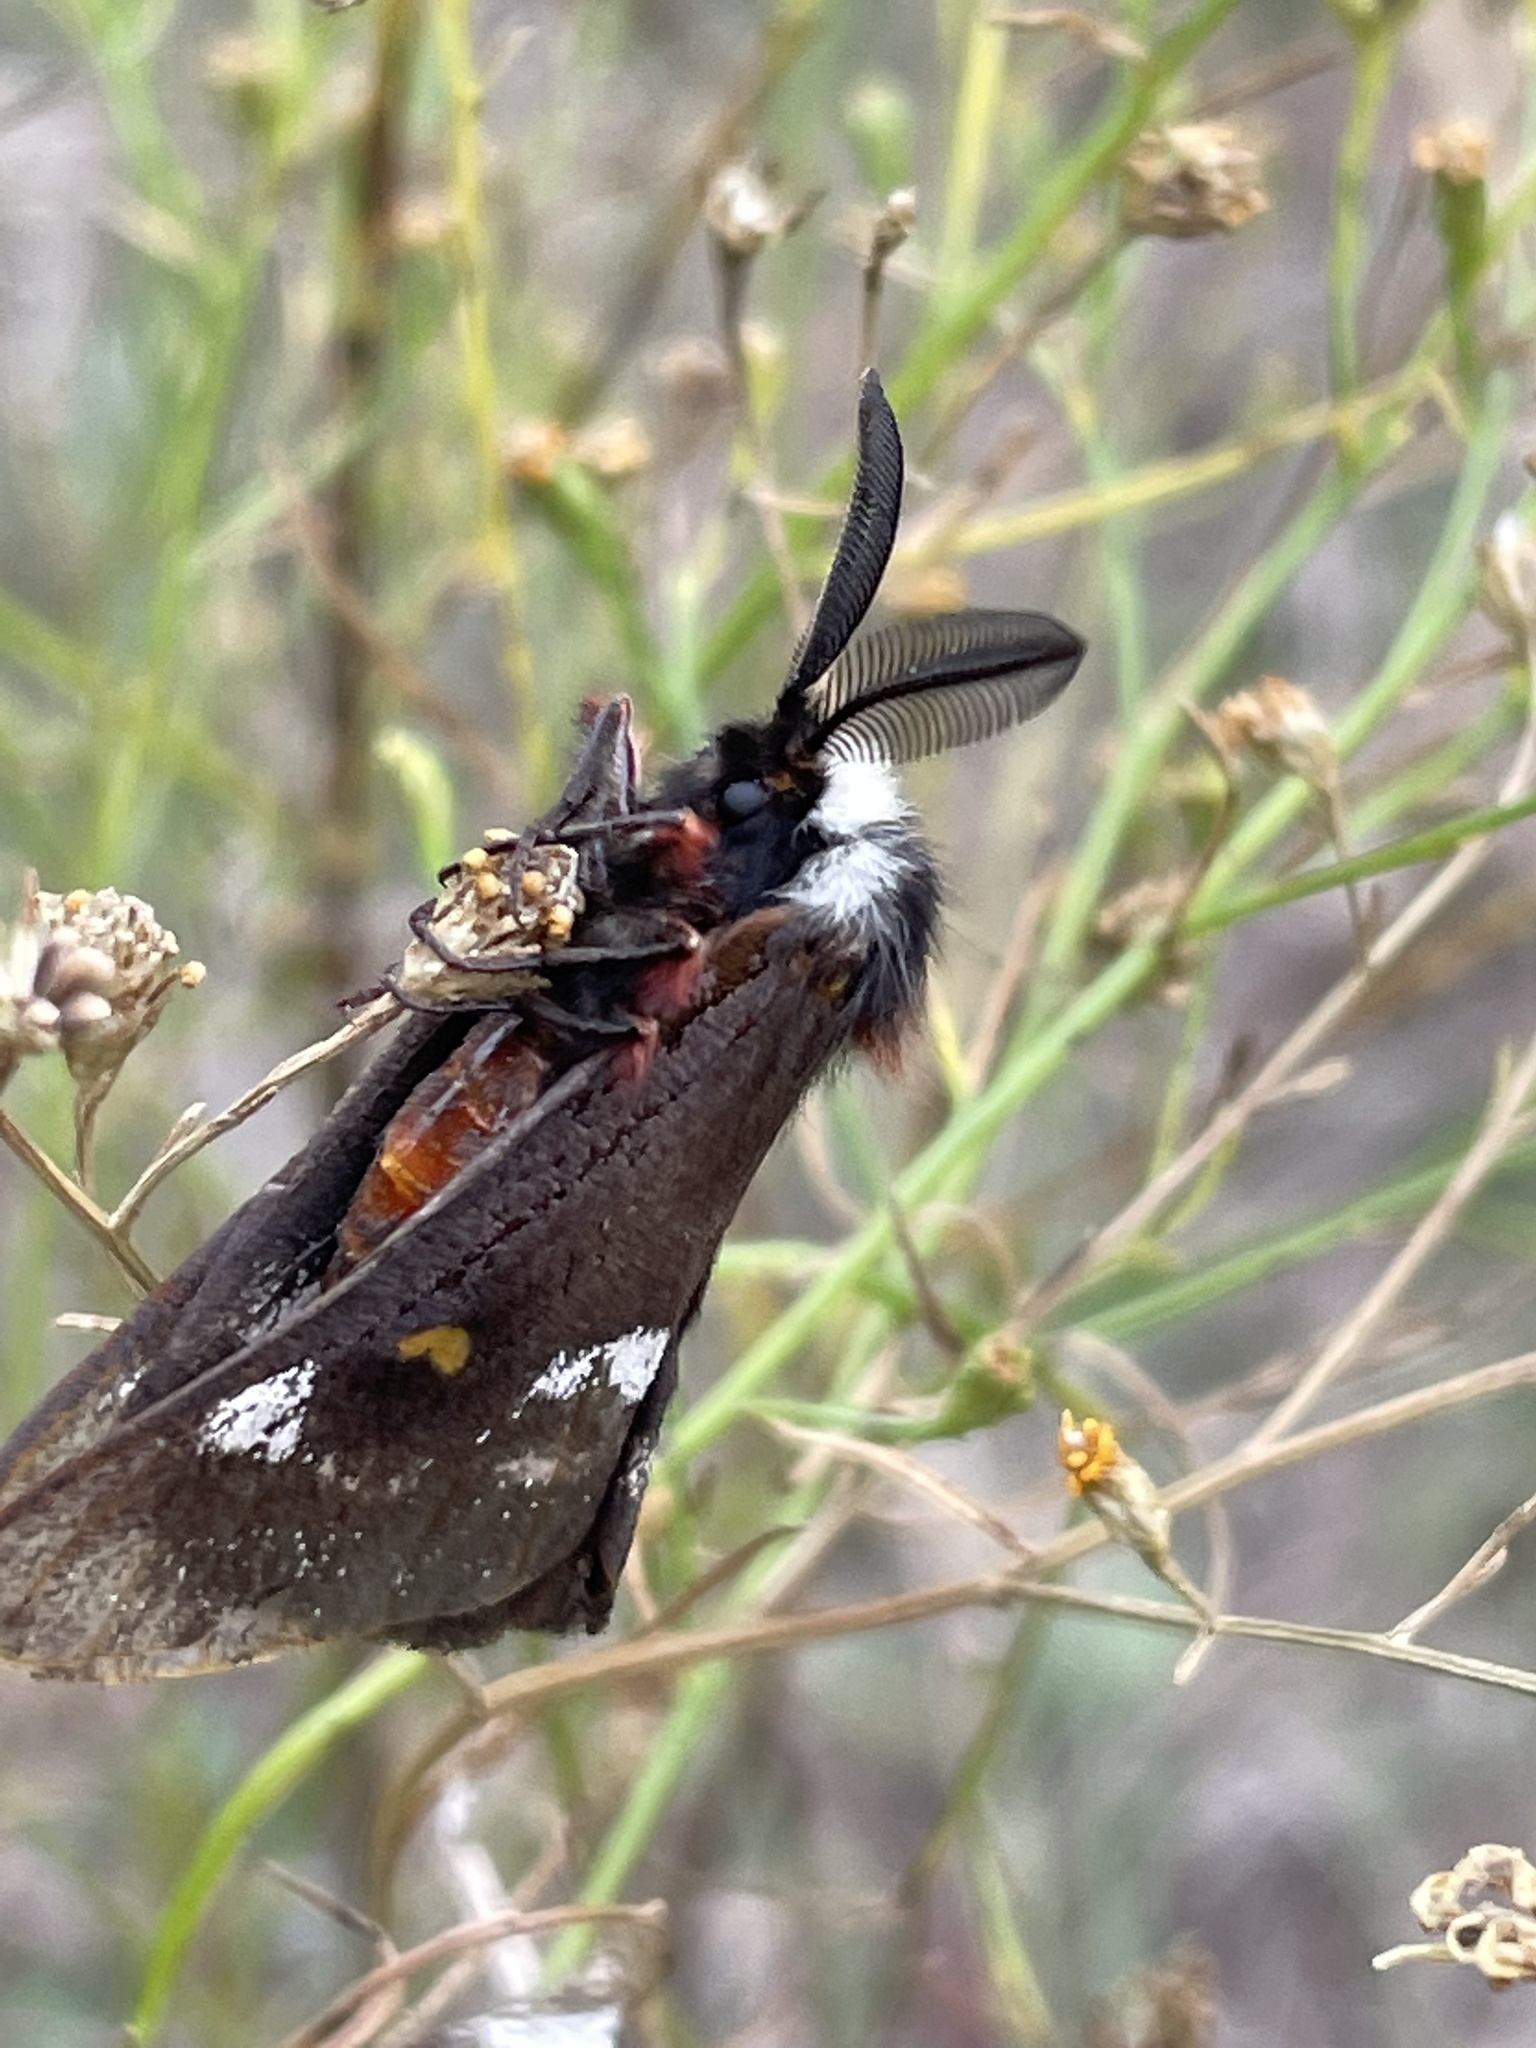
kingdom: Animalia
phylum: Arthropoda
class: Insecta
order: Lepidoptera
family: Saturniidae
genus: Hemileuca
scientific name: Hemileuca grotei
